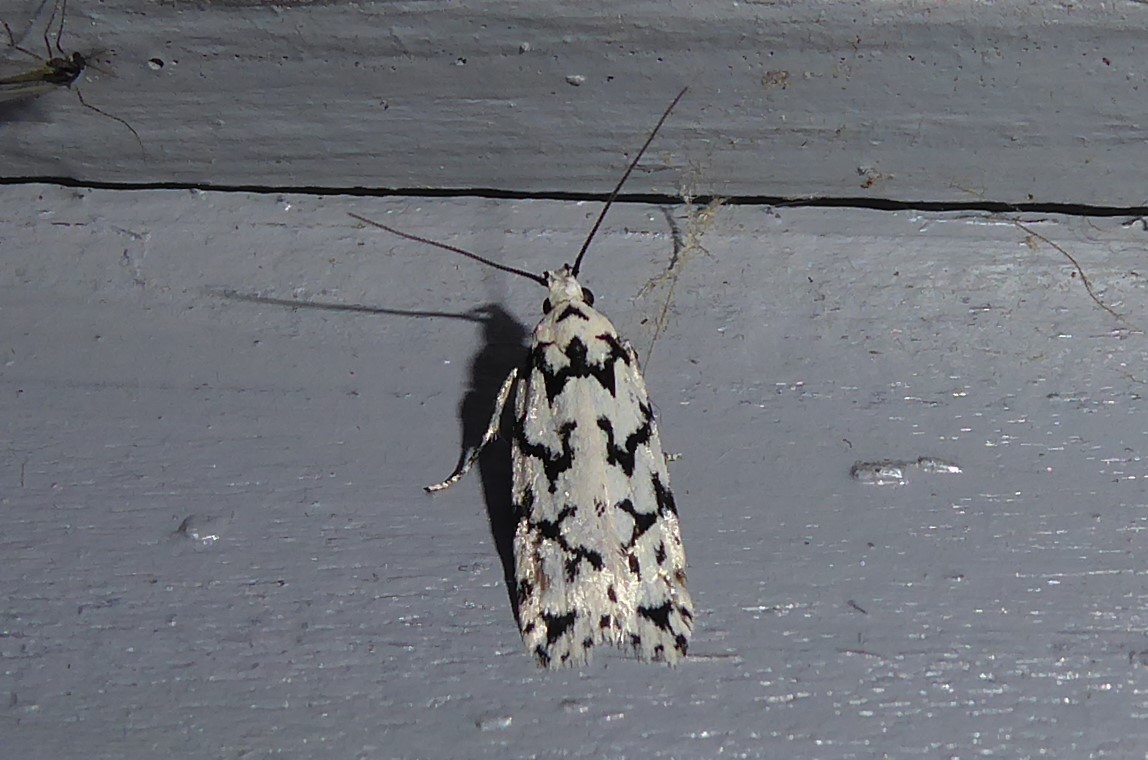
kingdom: Animalia
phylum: Arthropoda
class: Insecta
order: Lepidoptera
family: Oecophoridae
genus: Izatha
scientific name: Izatha katadiktya
